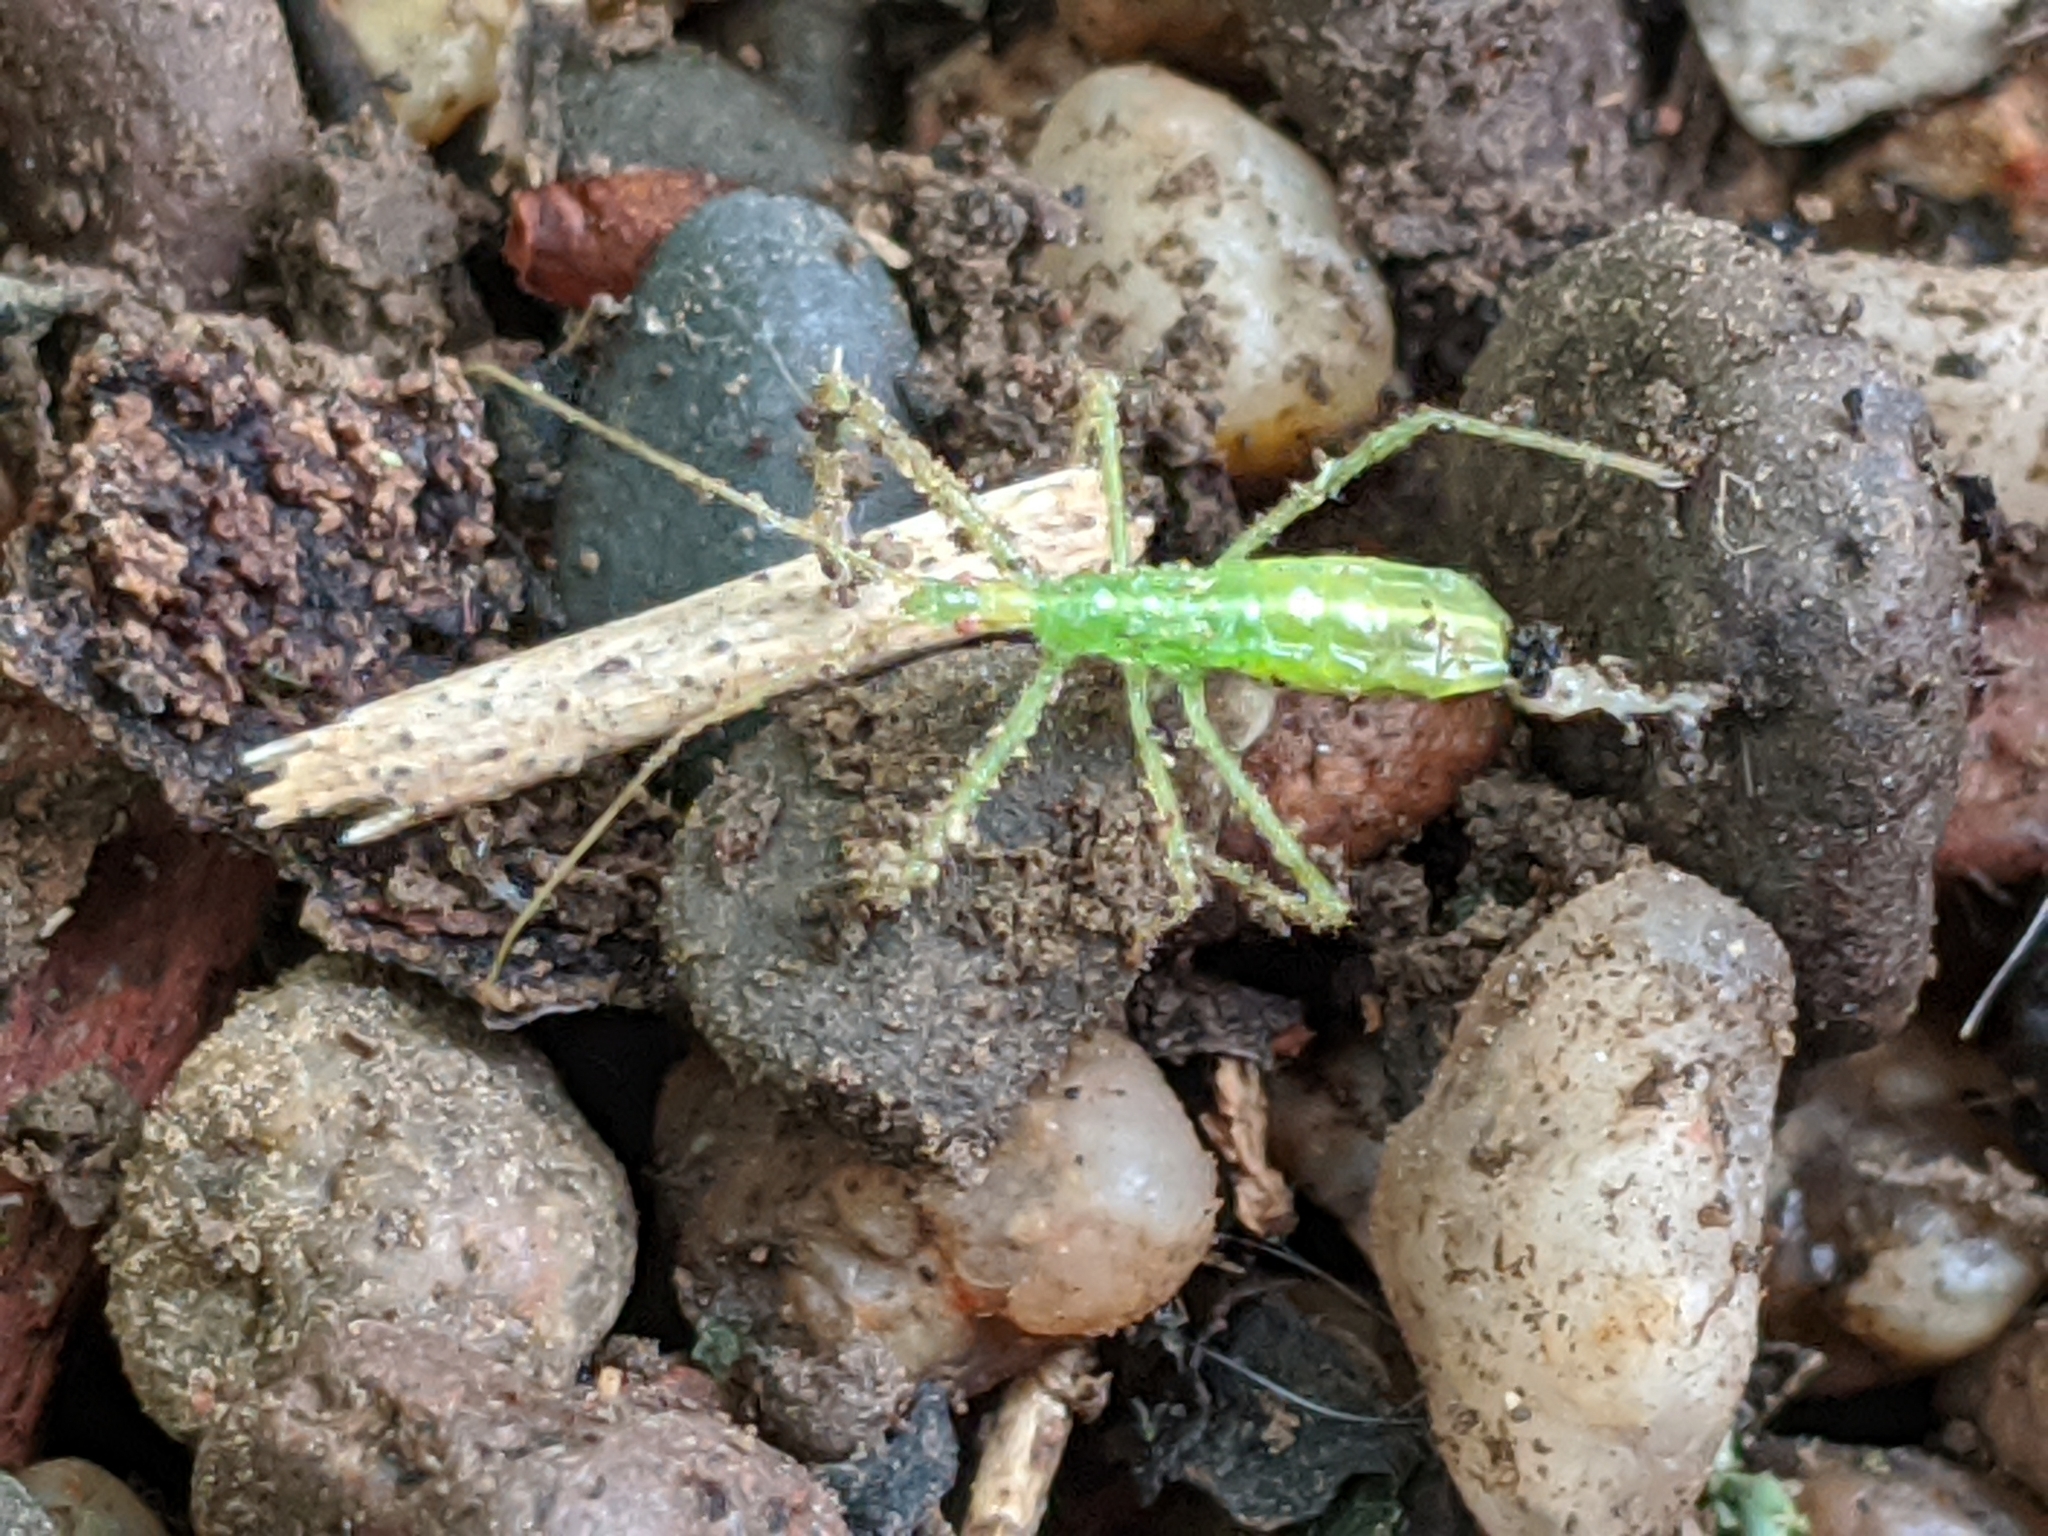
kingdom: Animalia
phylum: Arthropoda
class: Insecta
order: Hemiptera
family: Reduviidae
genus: Zelus
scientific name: Zelus luridus
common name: Pale green assassin bug
